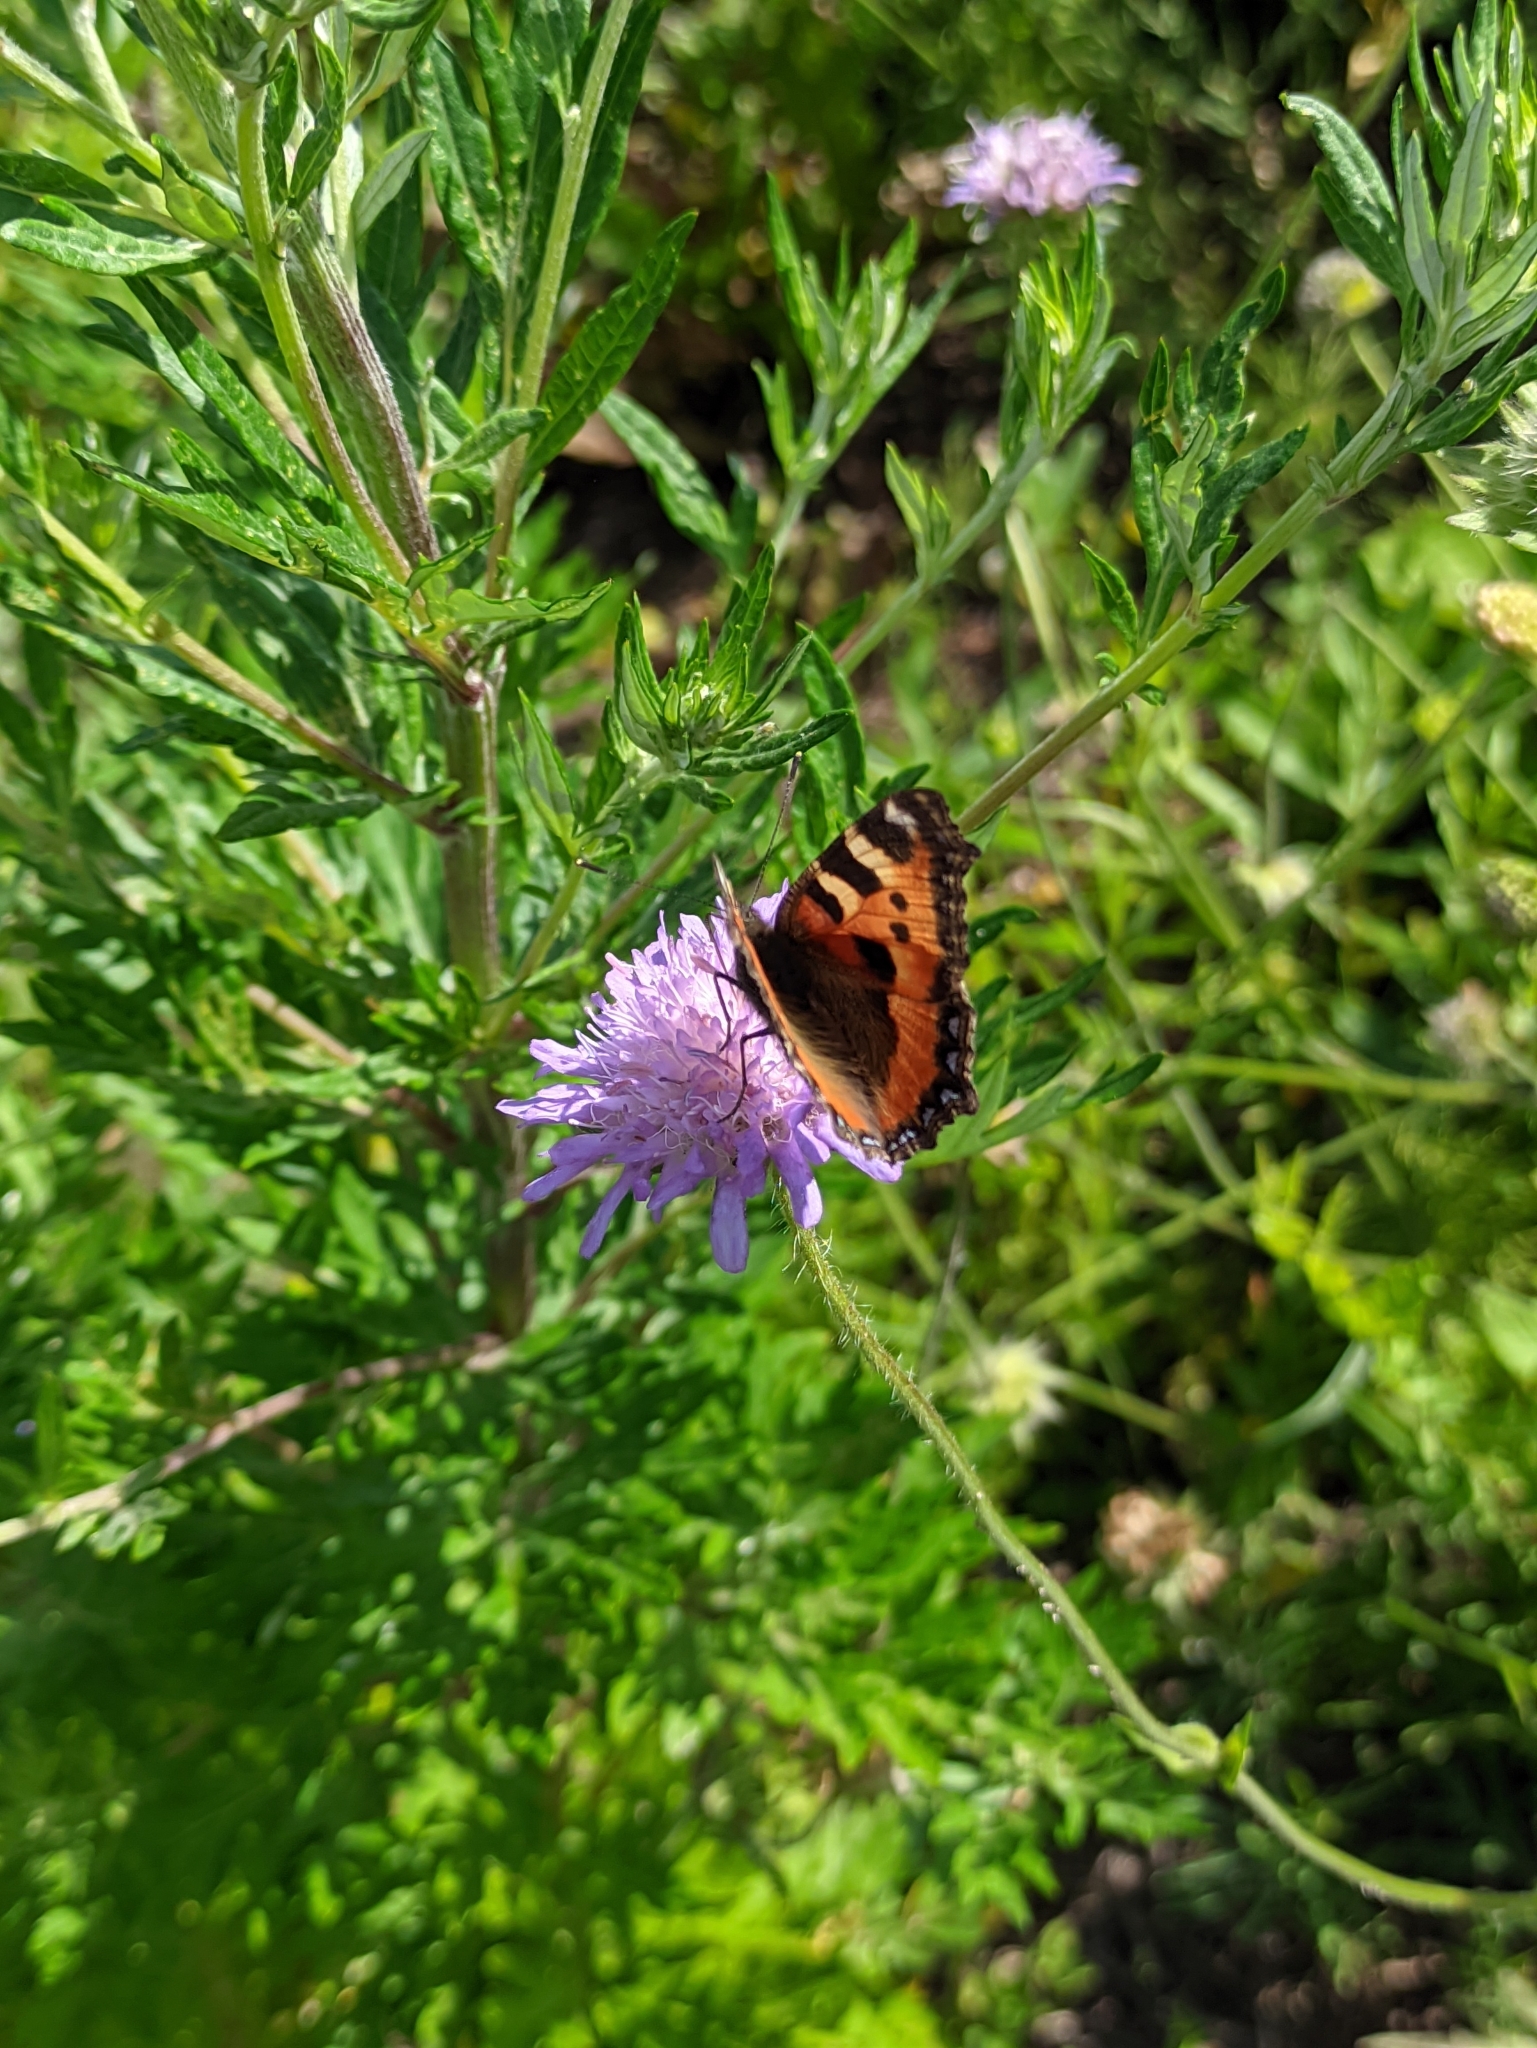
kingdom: Animalia
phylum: Arthropoda
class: Insecta
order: Lepidoptera
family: Nymphalidae
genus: Aglais
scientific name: Aglais urticae
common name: Small tortoiseshell
